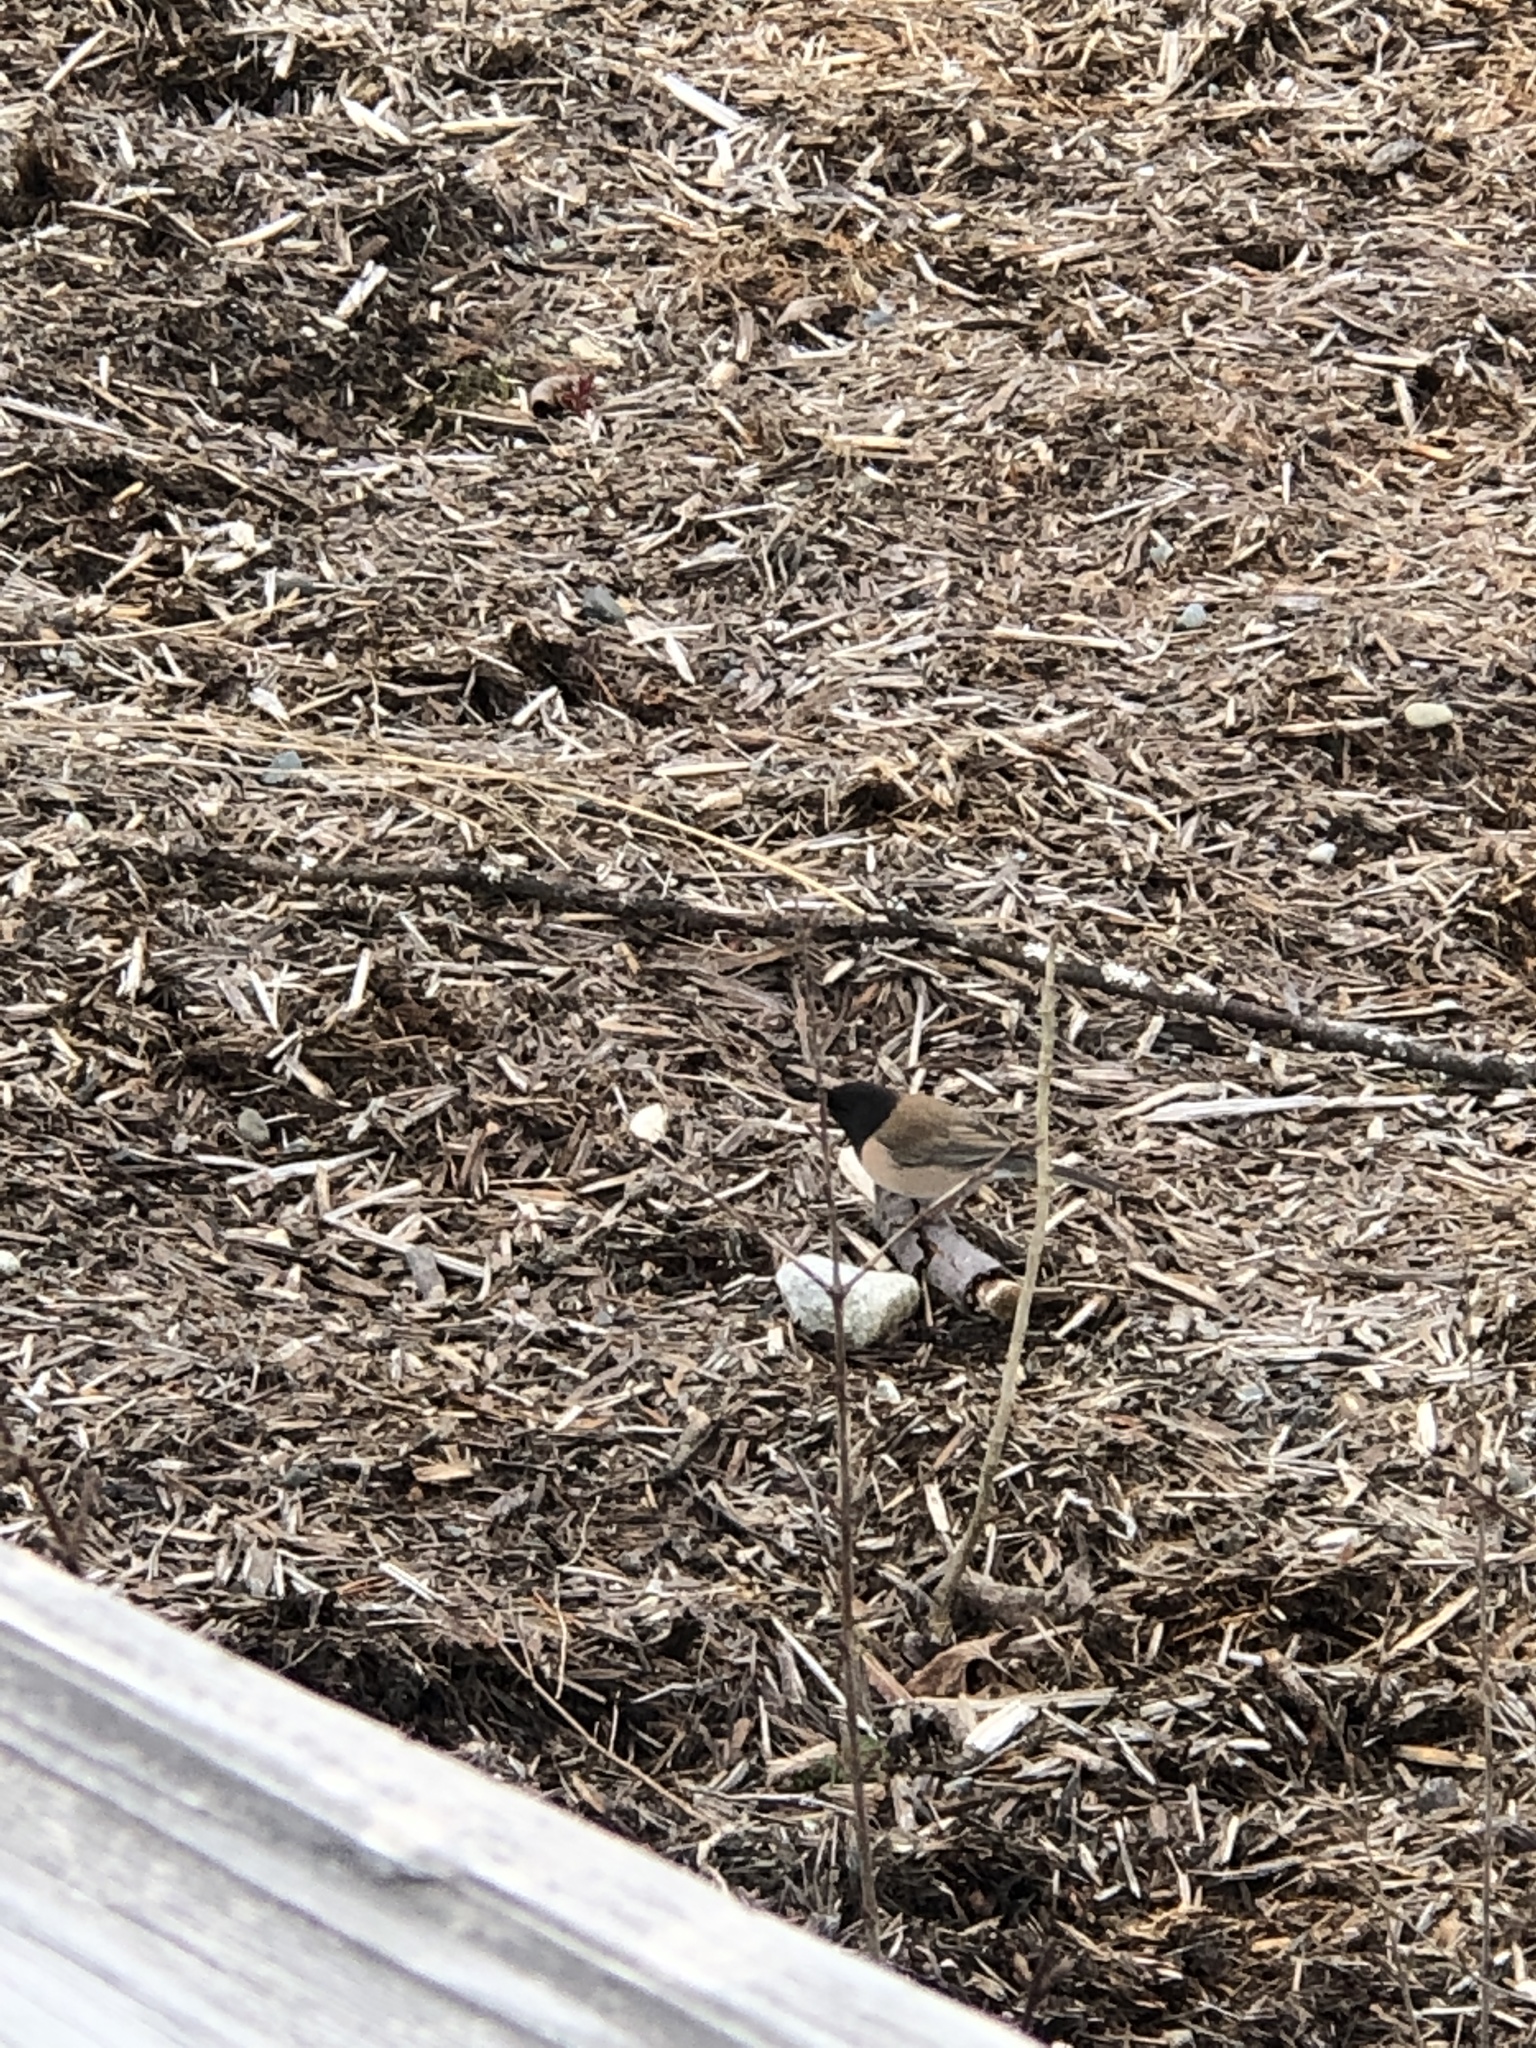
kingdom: Animalia
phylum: Chordata
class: Aves
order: Passeriformes
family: Passerellidae
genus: Junco
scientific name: Junco hyemalis
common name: Dark-eyed junco
